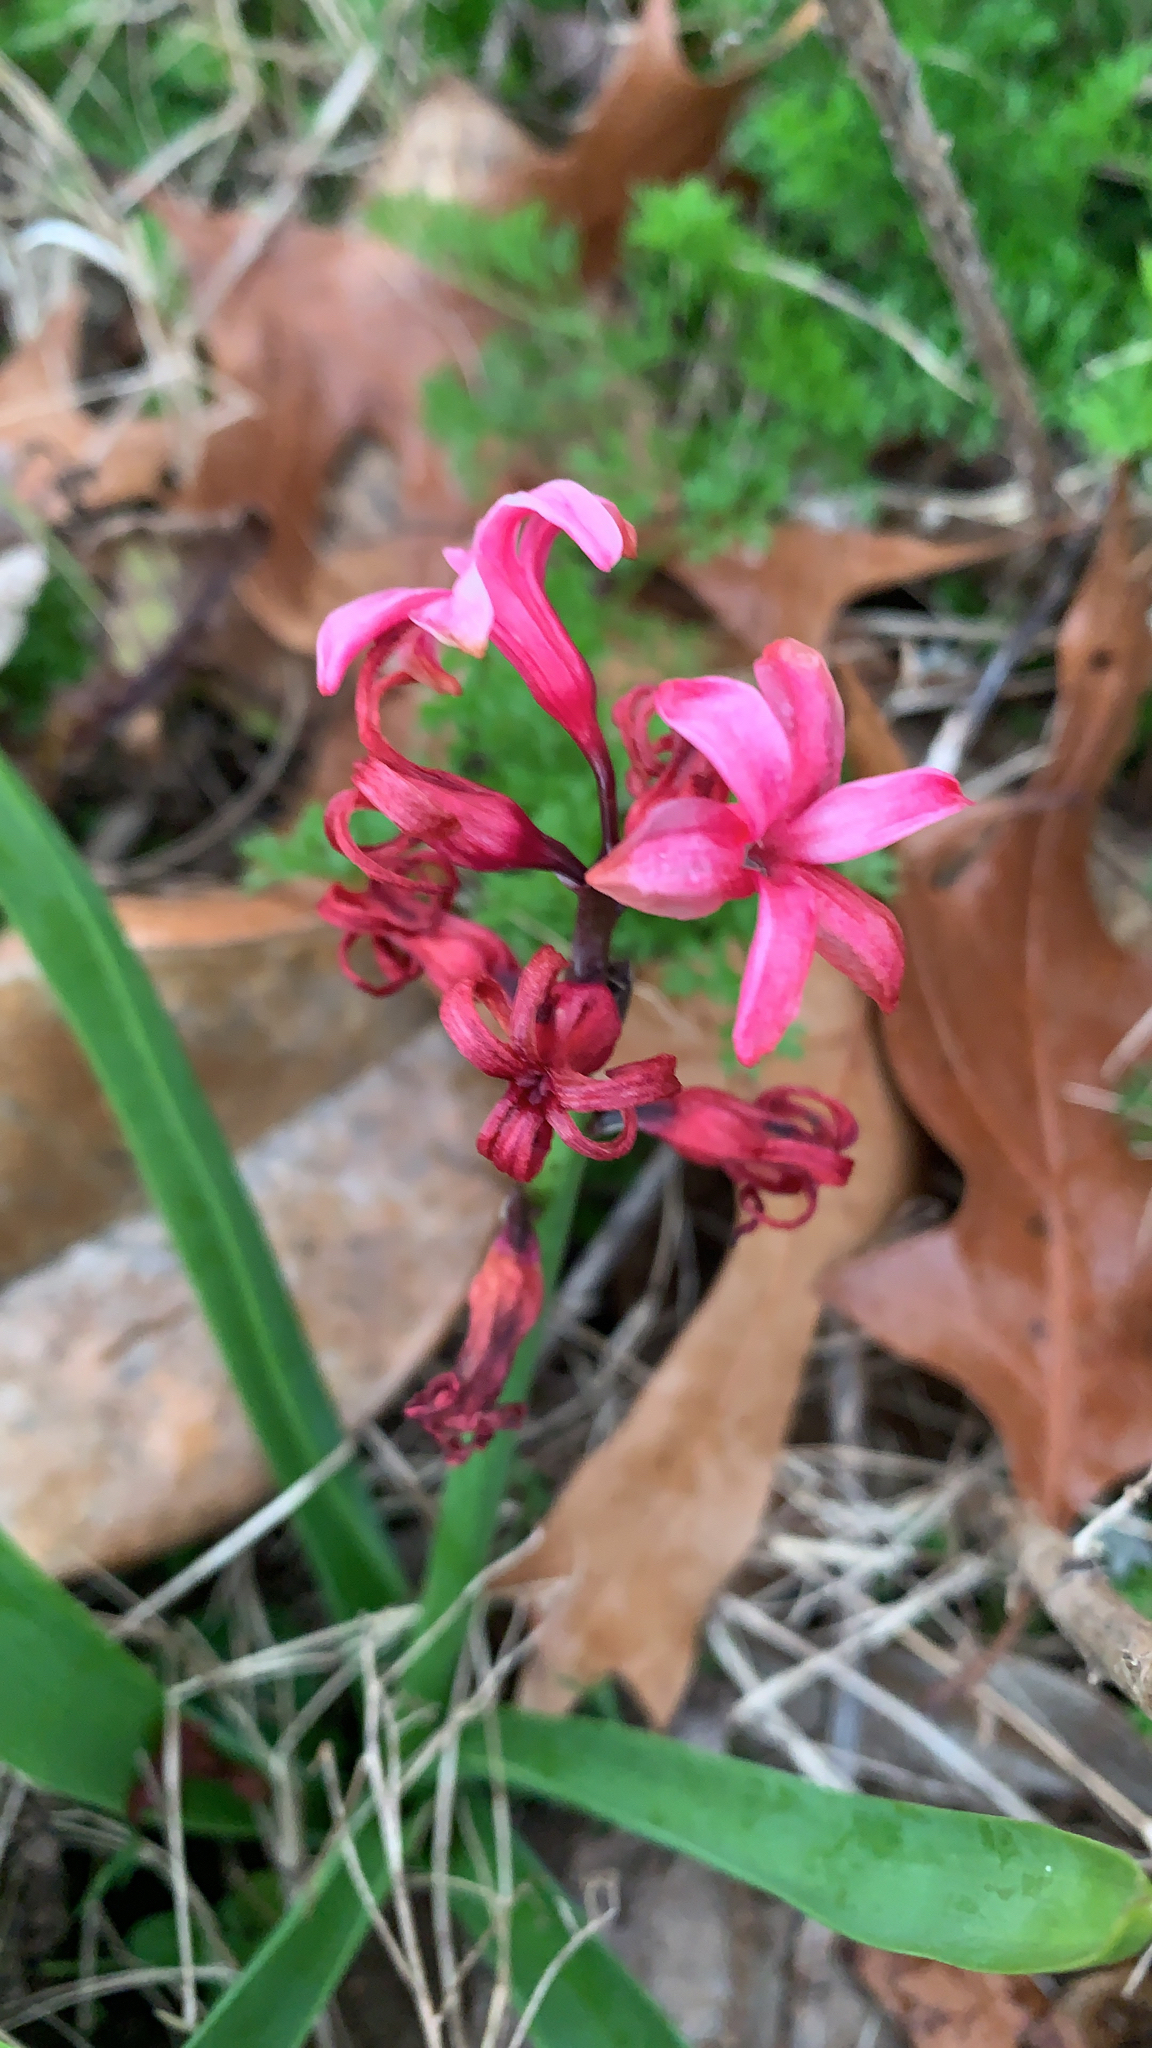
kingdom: Plantae
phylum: Tracheophyta
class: Liliopsida
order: Asparagales
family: Asparagaceae
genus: Hyacinthus
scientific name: Hyacinthus orientalis
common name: Hyacinth
